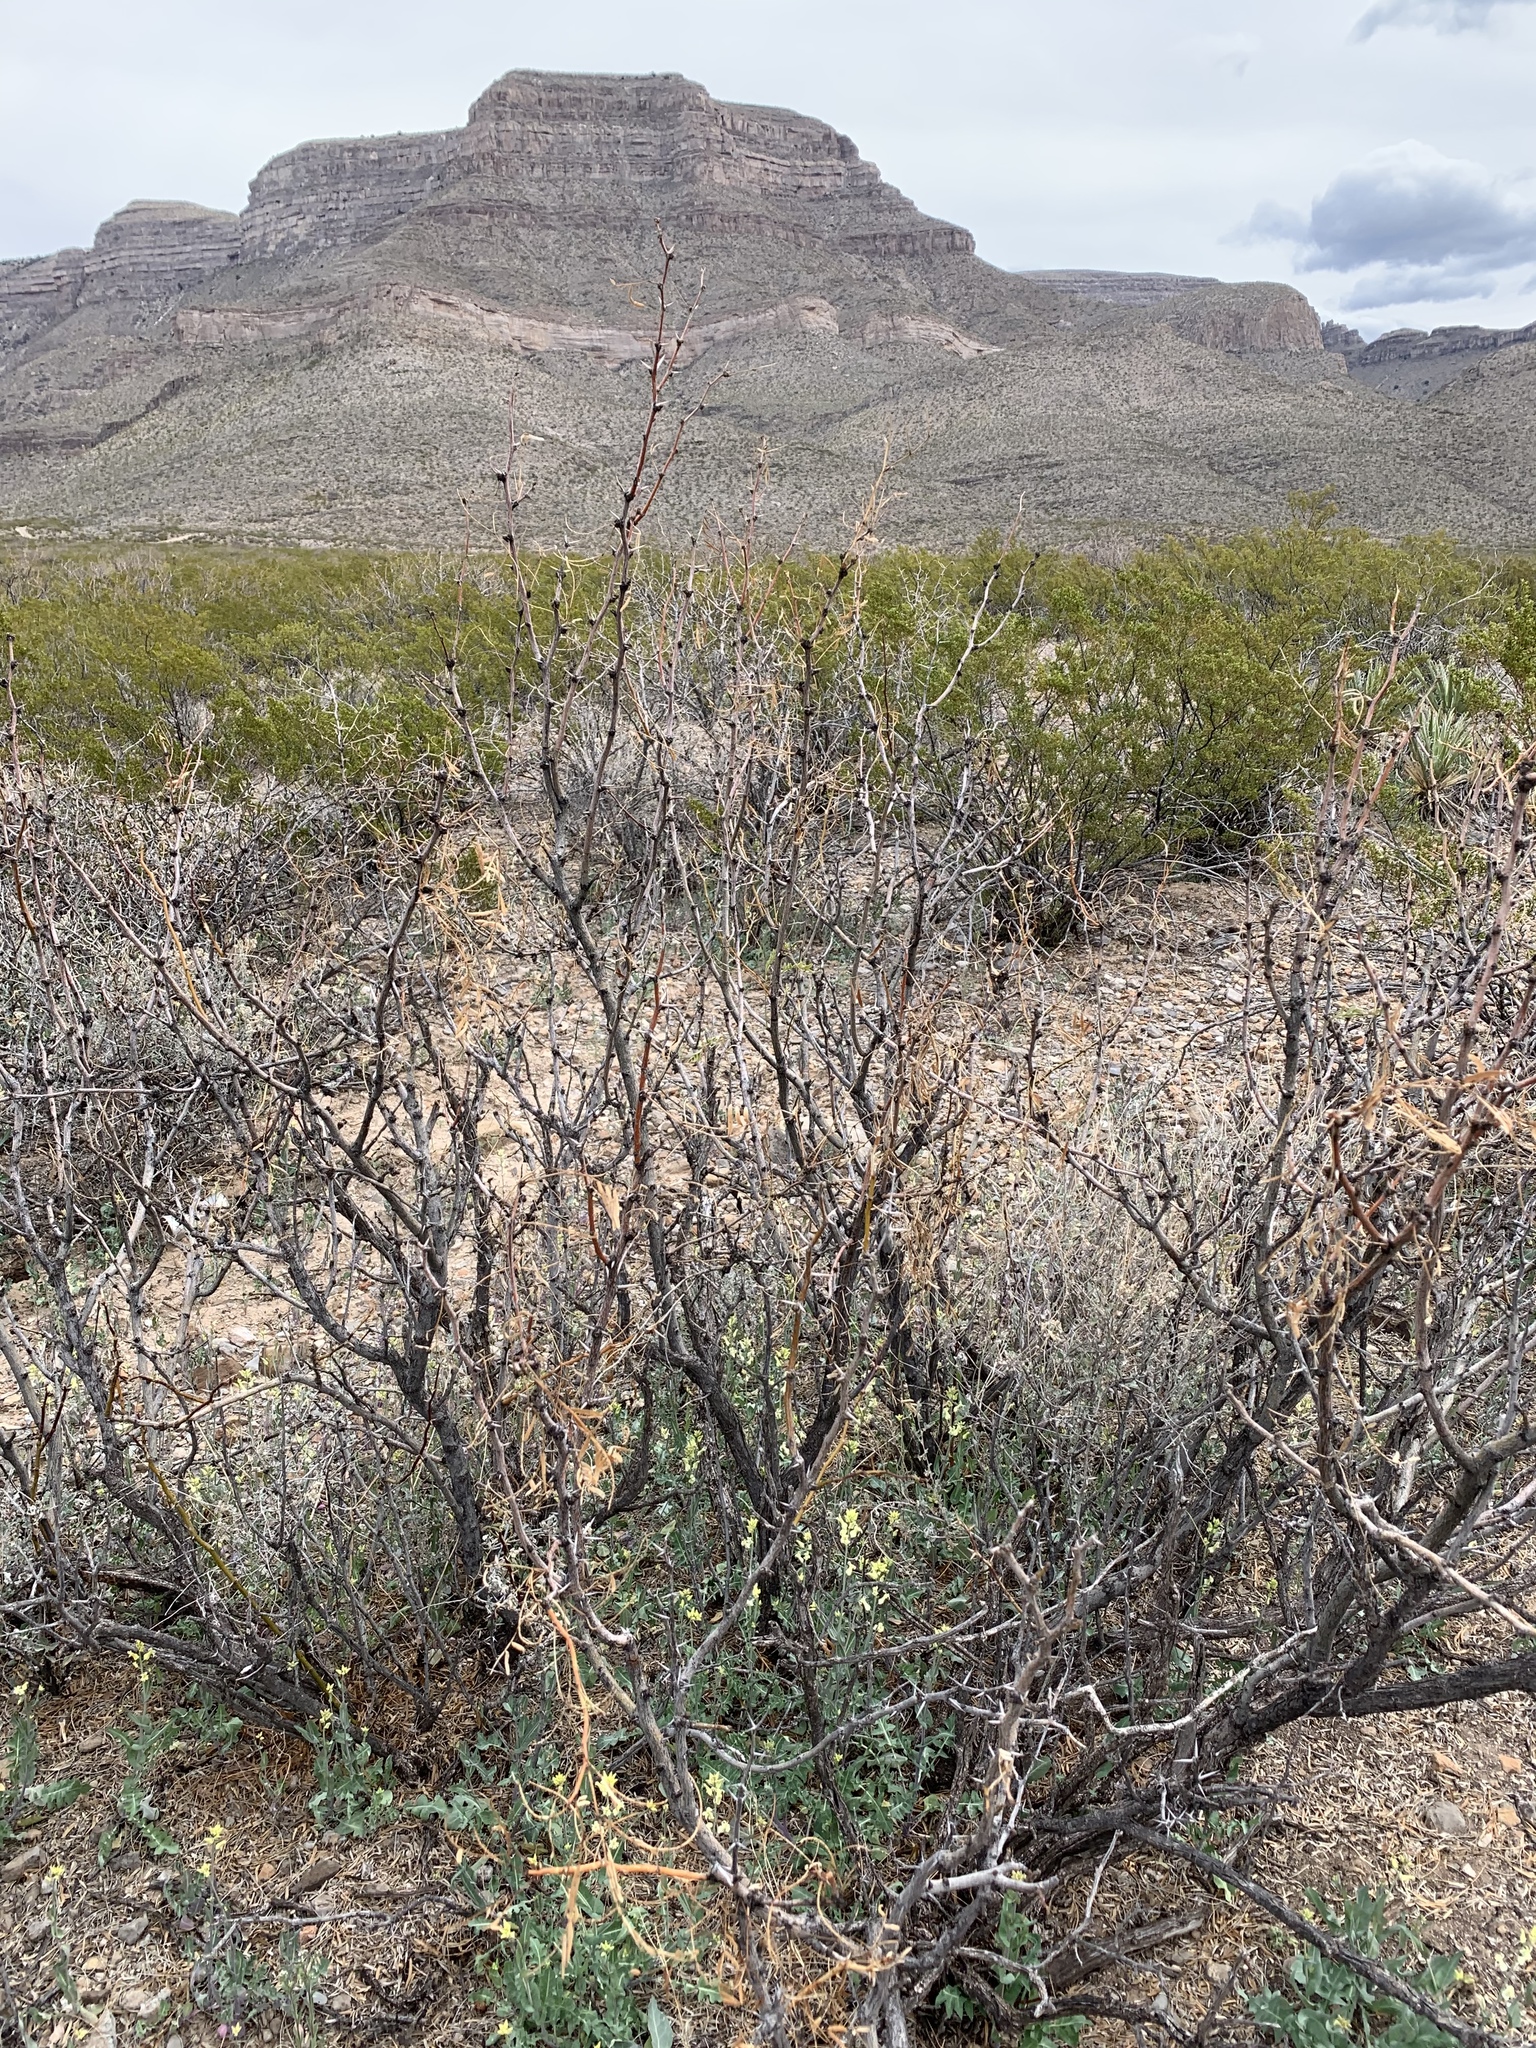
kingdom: Plantae
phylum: Tracheophyta
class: Magnoliopsida
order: Fabales
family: Fabaceae
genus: Prosopis
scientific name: Prosopis glandulosa
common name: Honey mesquite
